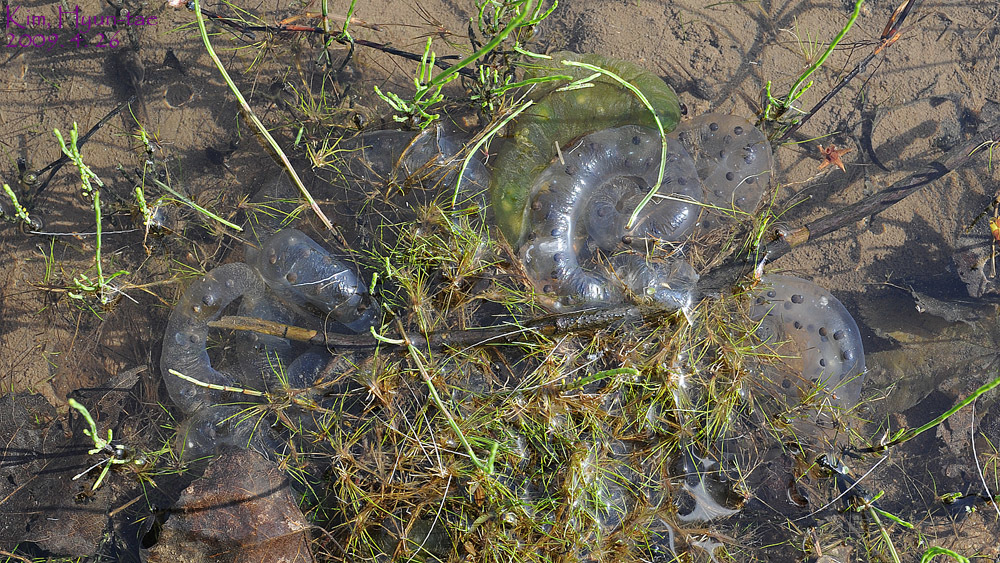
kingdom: Animalia
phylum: Chordata
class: Amphibia
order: Caudata
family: Hynobiidae
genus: Hynobius
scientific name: Hynobius leechii
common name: Gensan salamander
